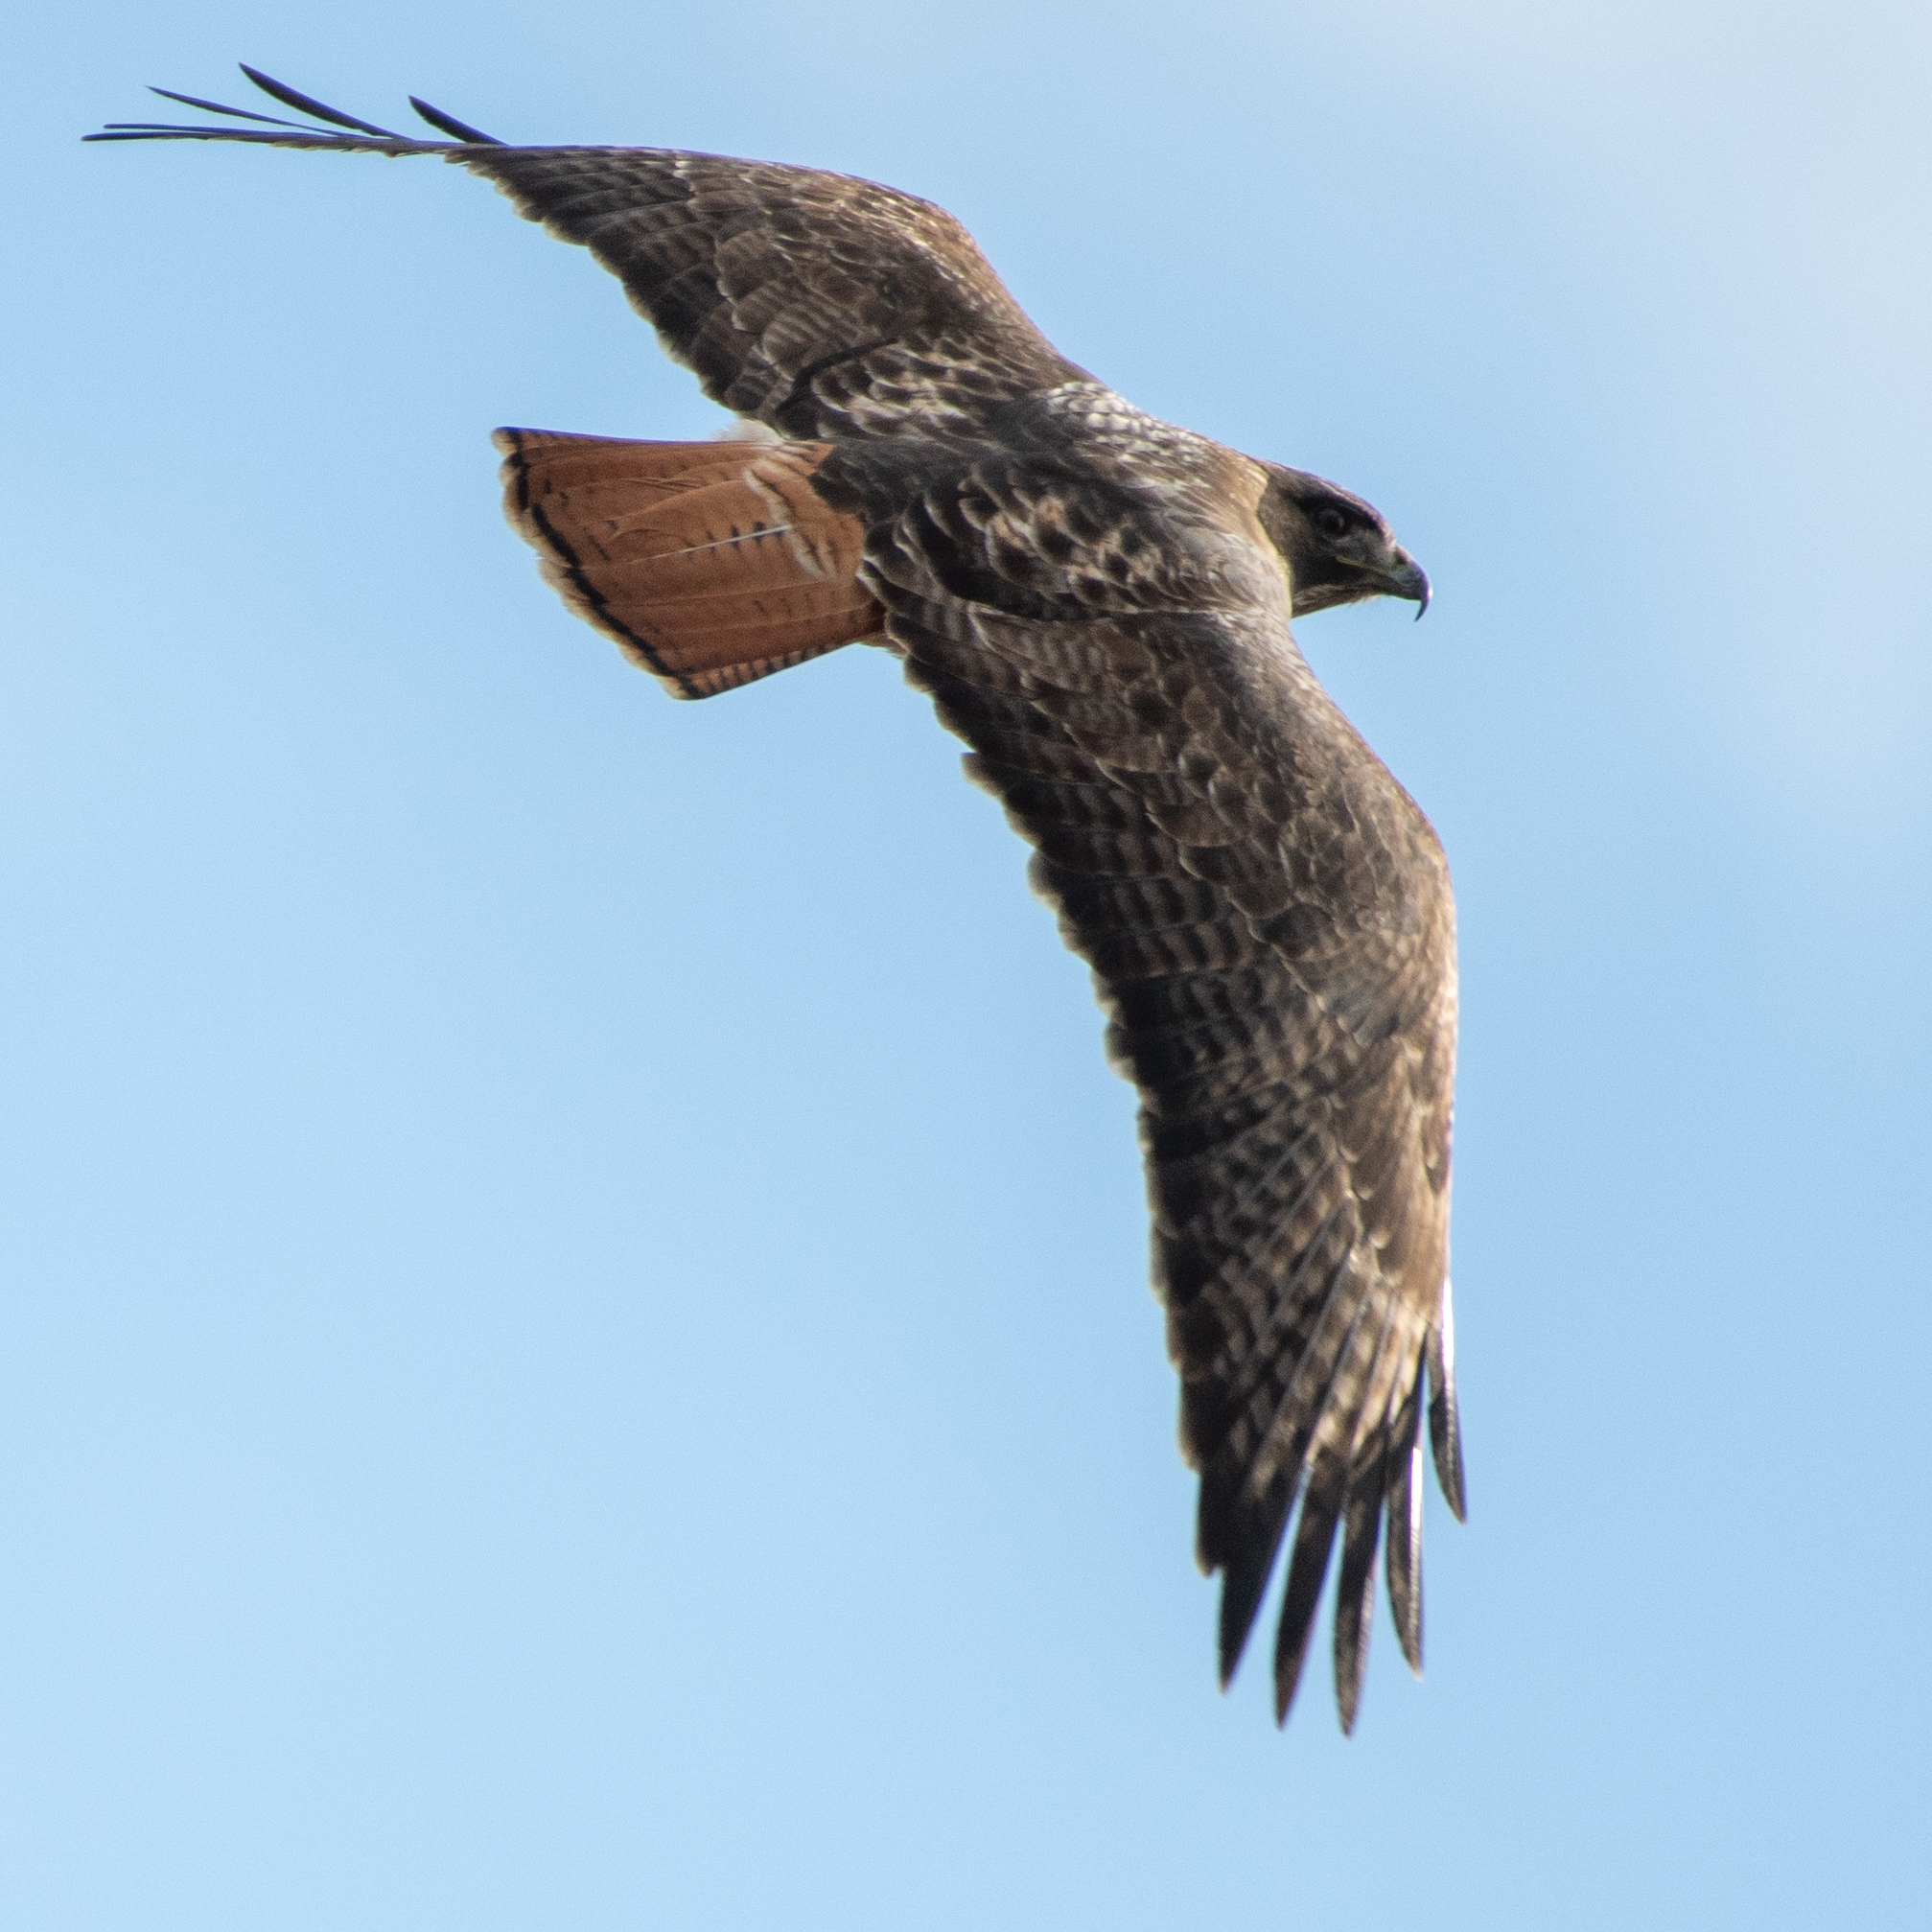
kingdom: Animalia
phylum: Chordata
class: Aves
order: Accipitriformes
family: Accipitridae
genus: Buteo
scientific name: Buteo jamaicensis
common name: Red-tailed hawk
